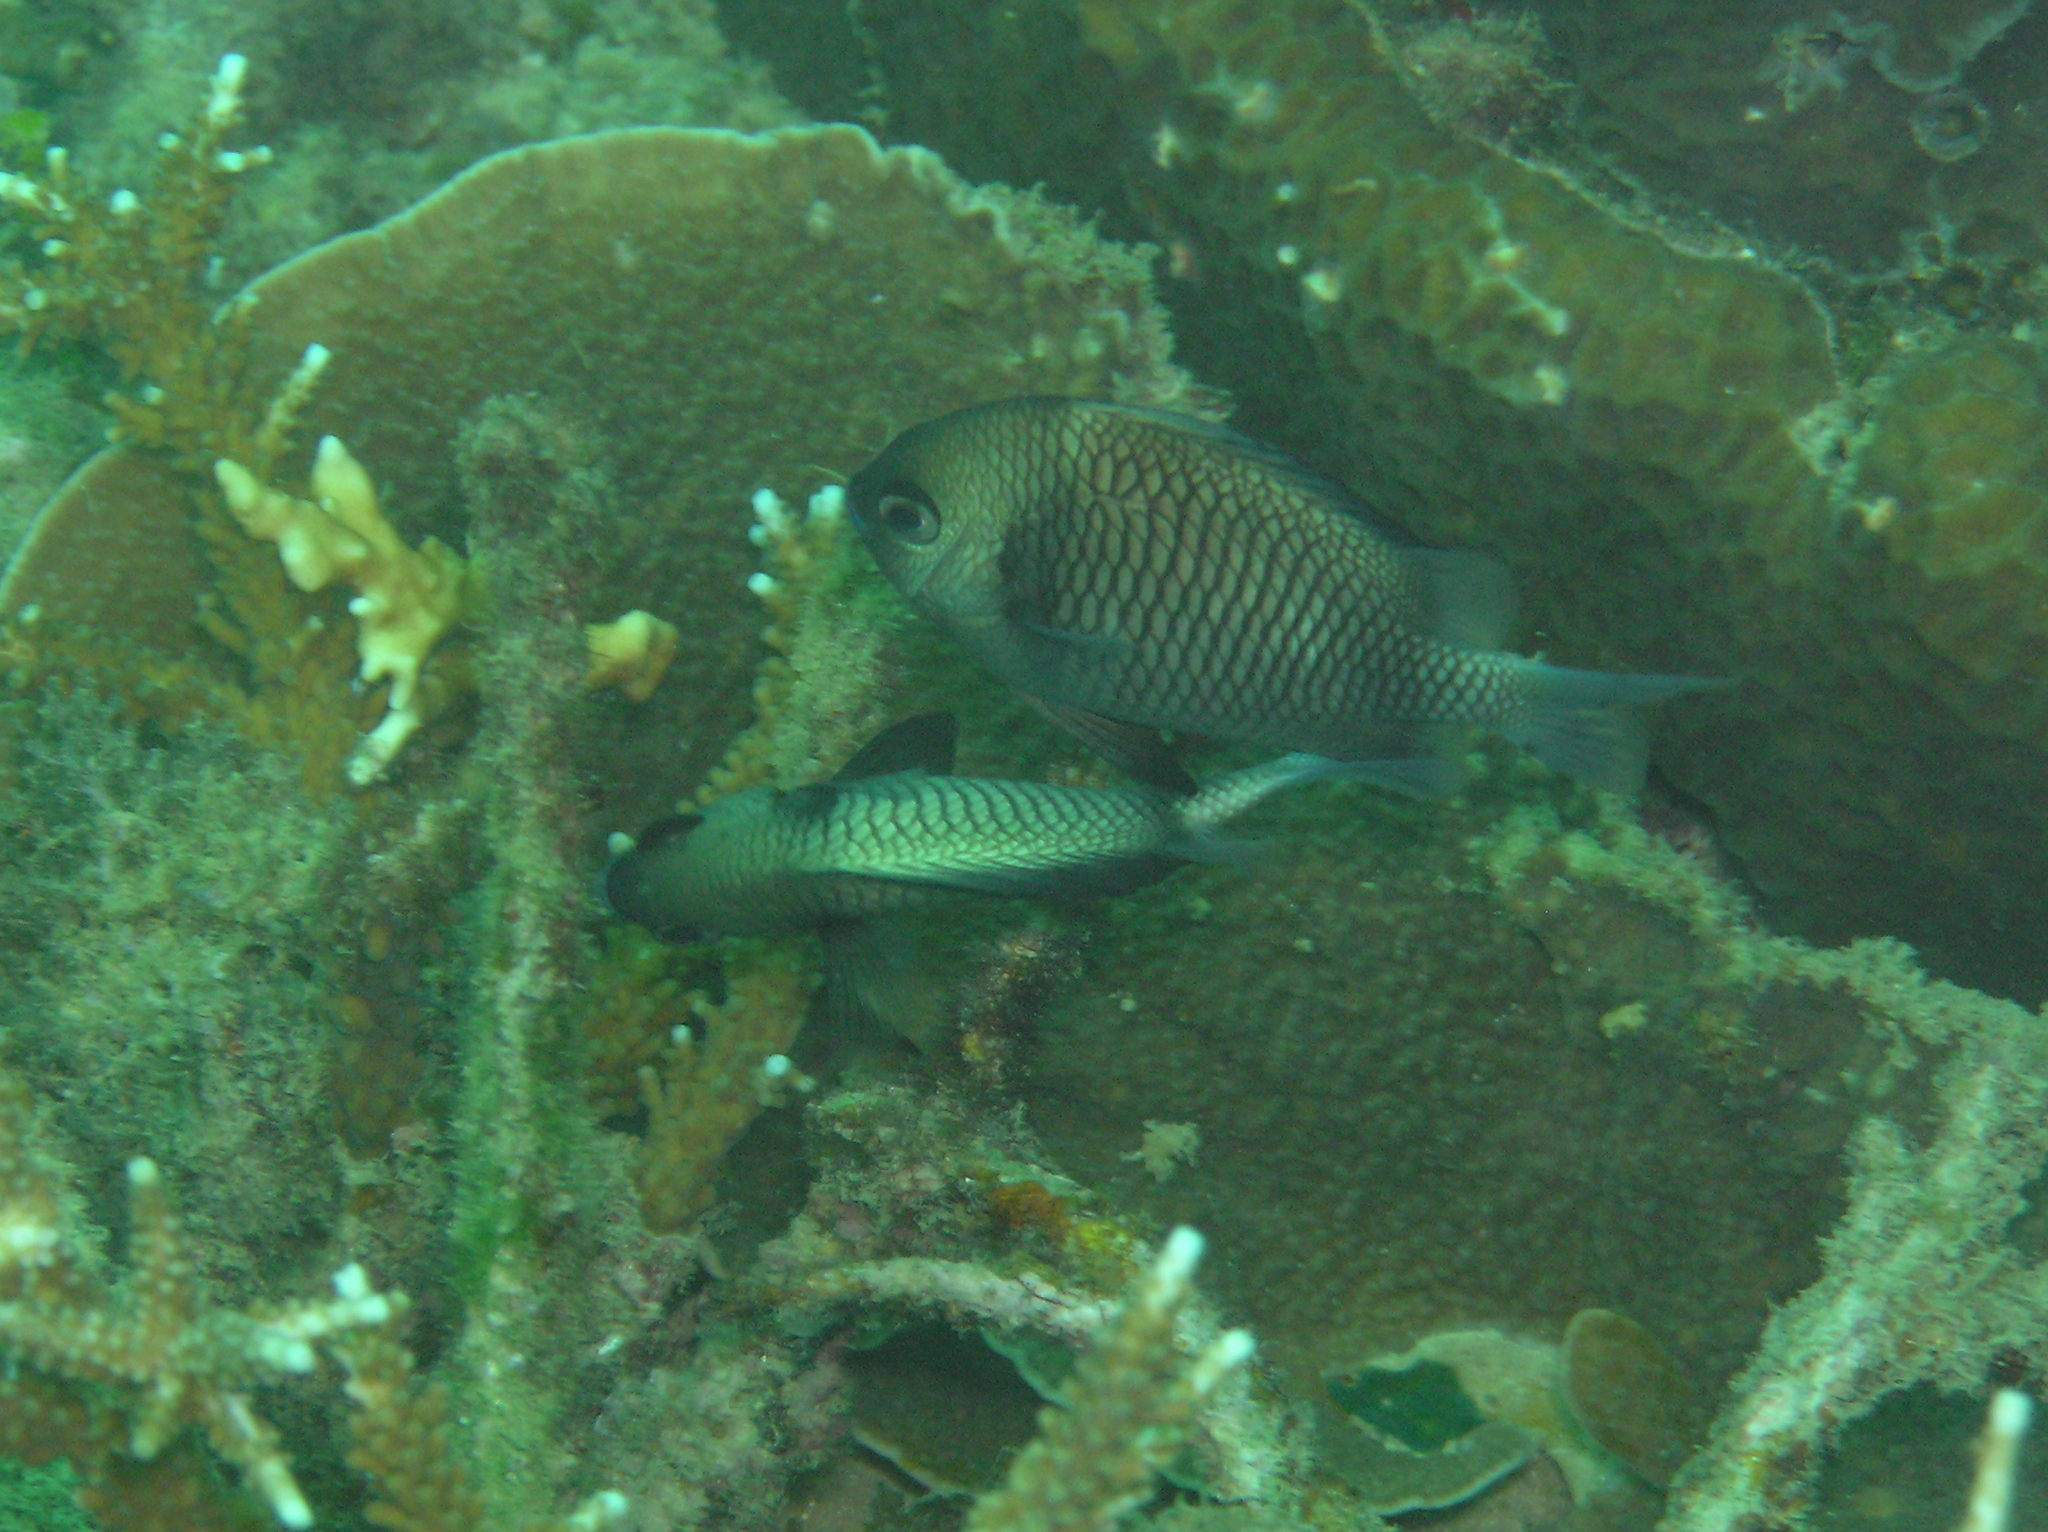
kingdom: Animalia
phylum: Chordata
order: Perciformes
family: Pomacentridae
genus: Dascyllus
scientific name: Dascyllus reticulatus
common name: Reticulated dascyllus
